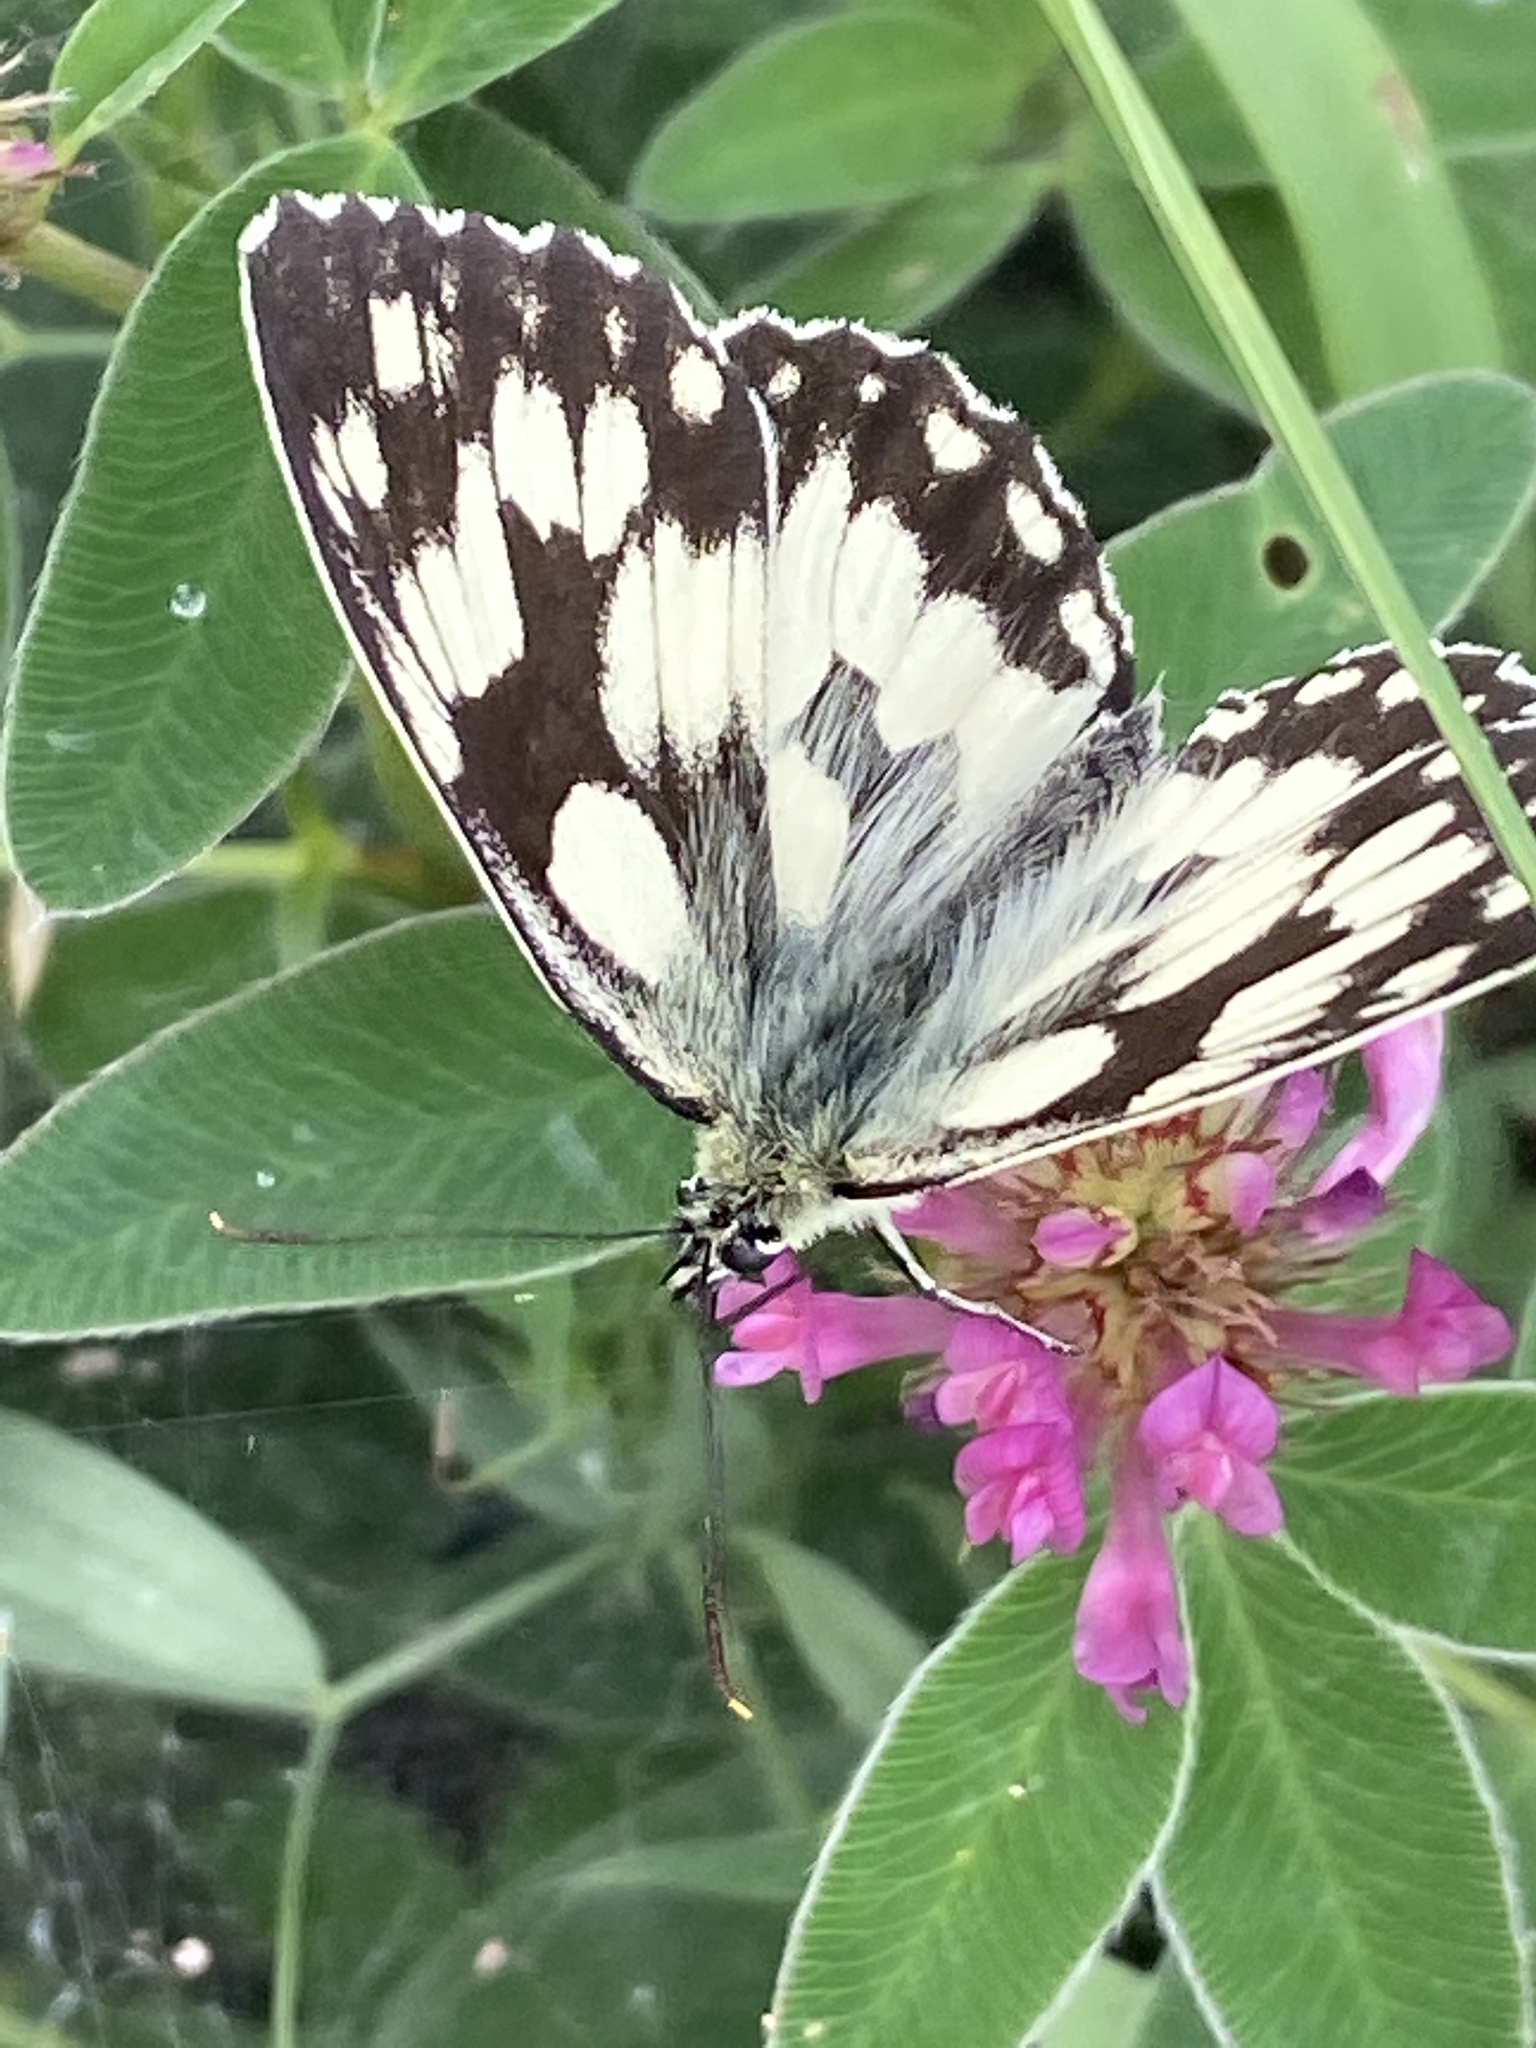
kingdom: Animalia
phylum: Arthropoda
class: Insecta
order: Lepidoptera
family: Nymphalidae
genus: Melanargia
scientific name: Melanargia galathea
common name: Marbled white
